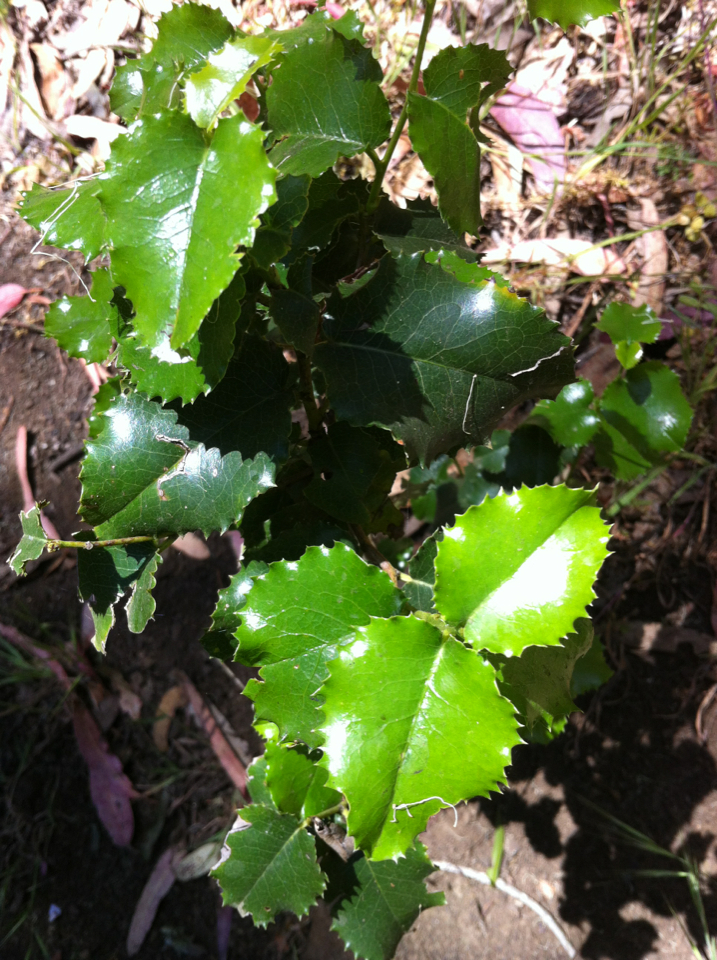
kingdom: Plantae
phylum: Tracheophyta
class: Magnoliopsida
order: Rosales
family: Rosaceae
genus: Prunus
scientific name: Prunus ilicifolia
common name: Hollyleaf cherry
